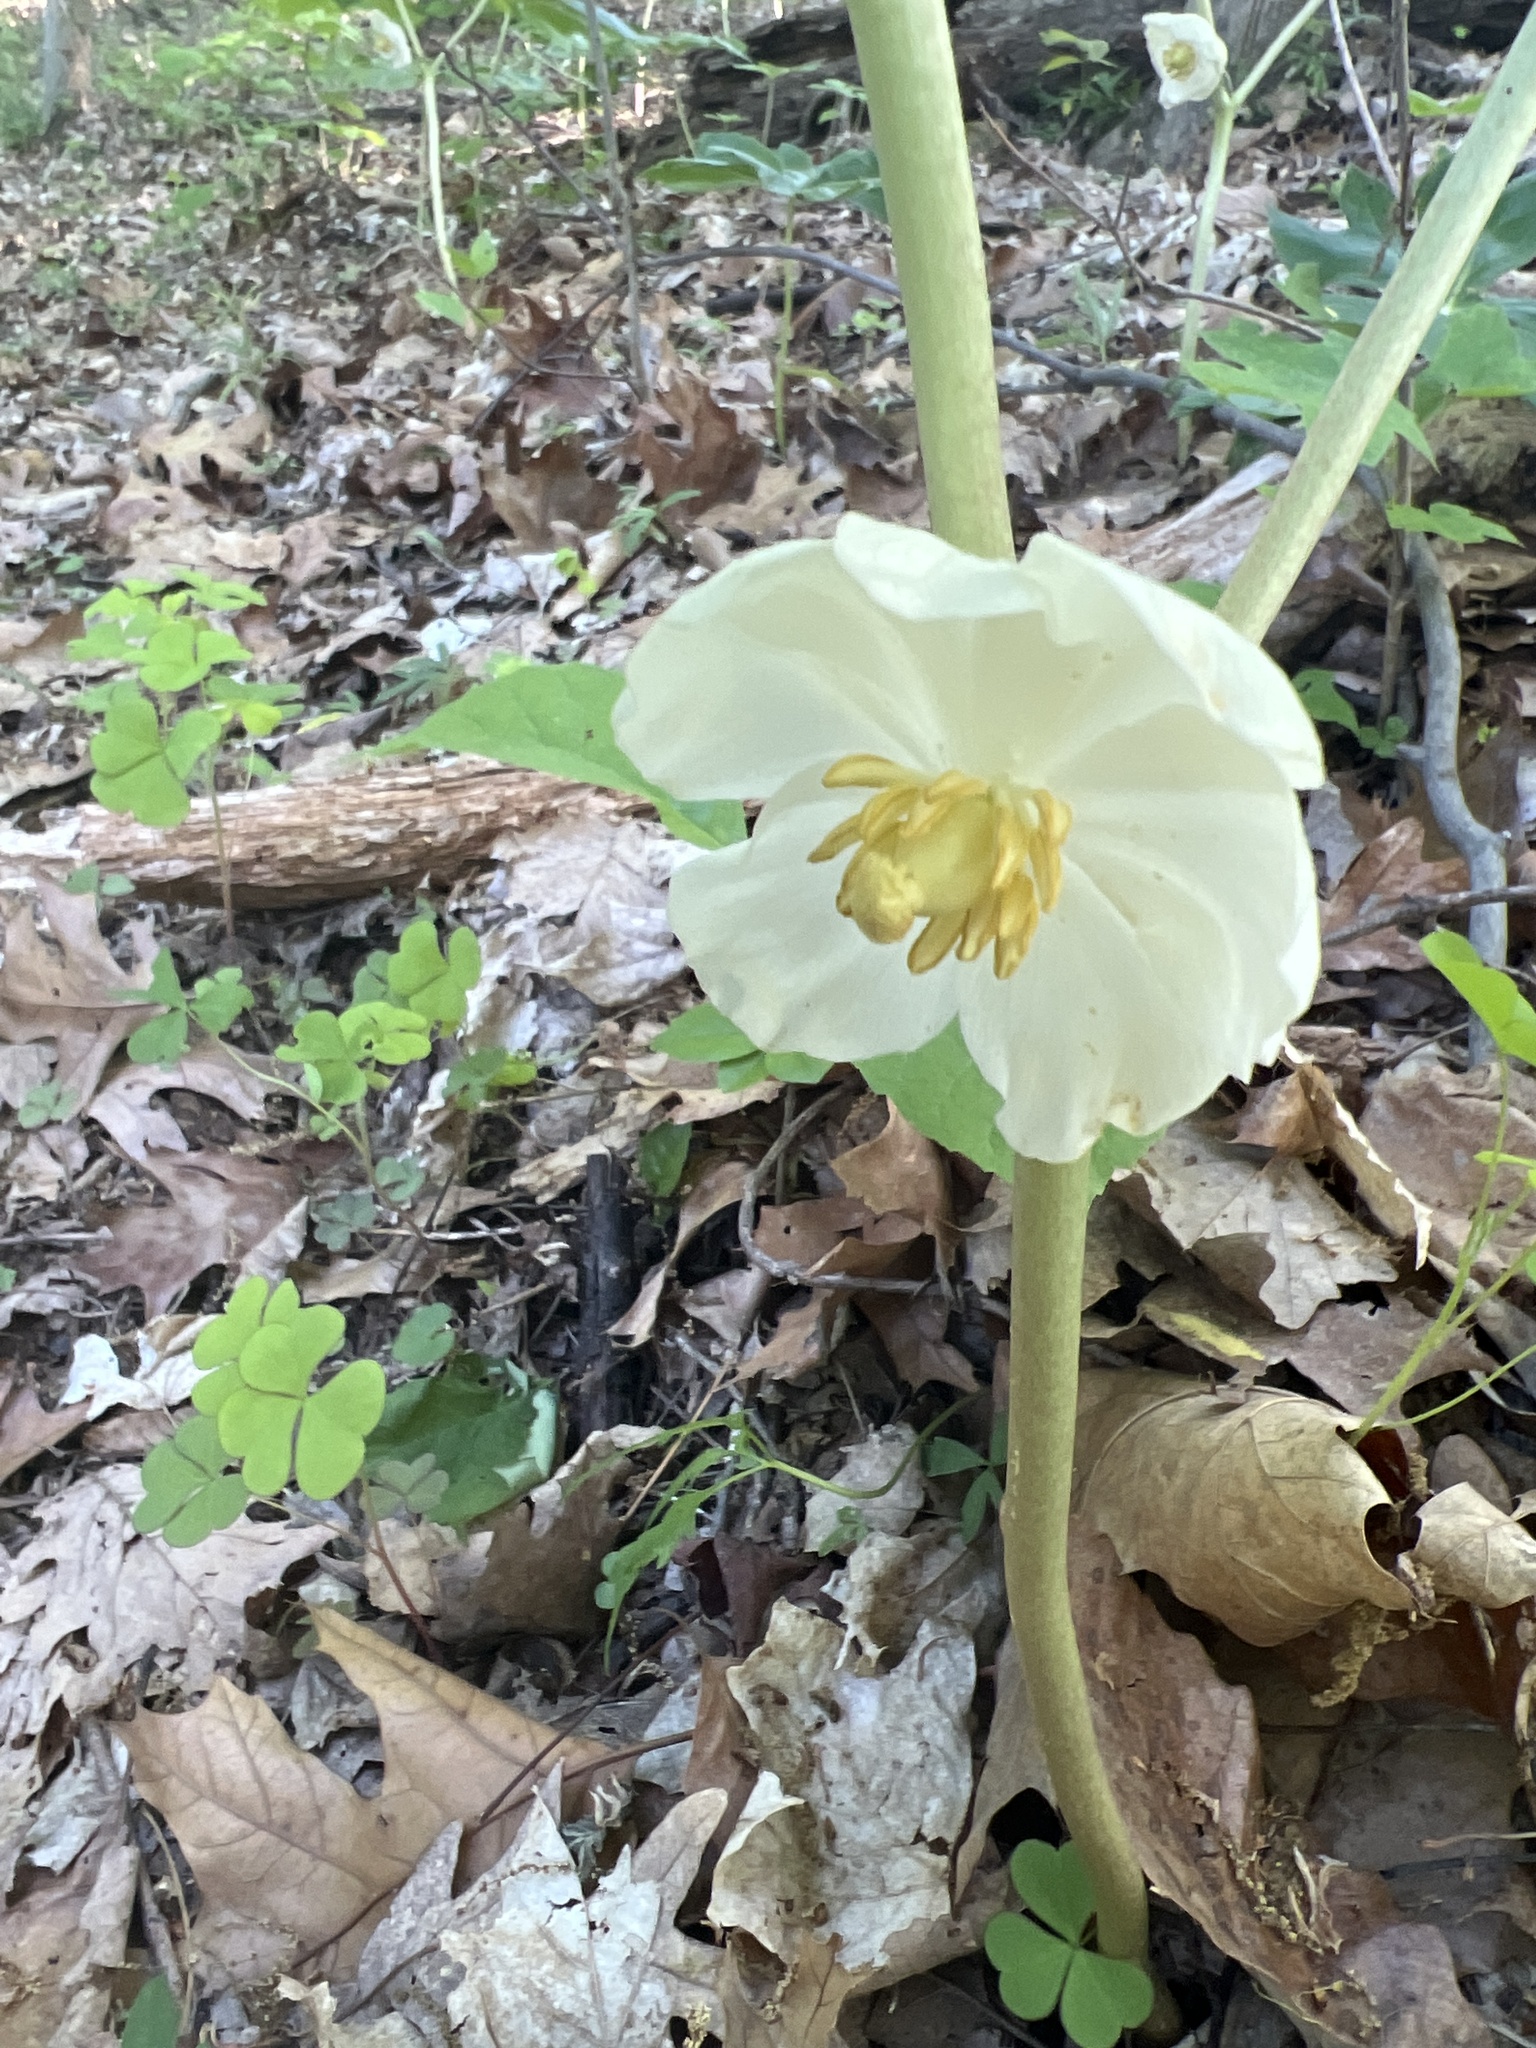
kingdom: Plantae
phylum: Tracheophyta
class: Magnoliopsida
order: Ranunculales
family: Berberidaceae
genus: Podophyllum
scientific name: Podophyllum peltatum
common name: Wild mandrake
